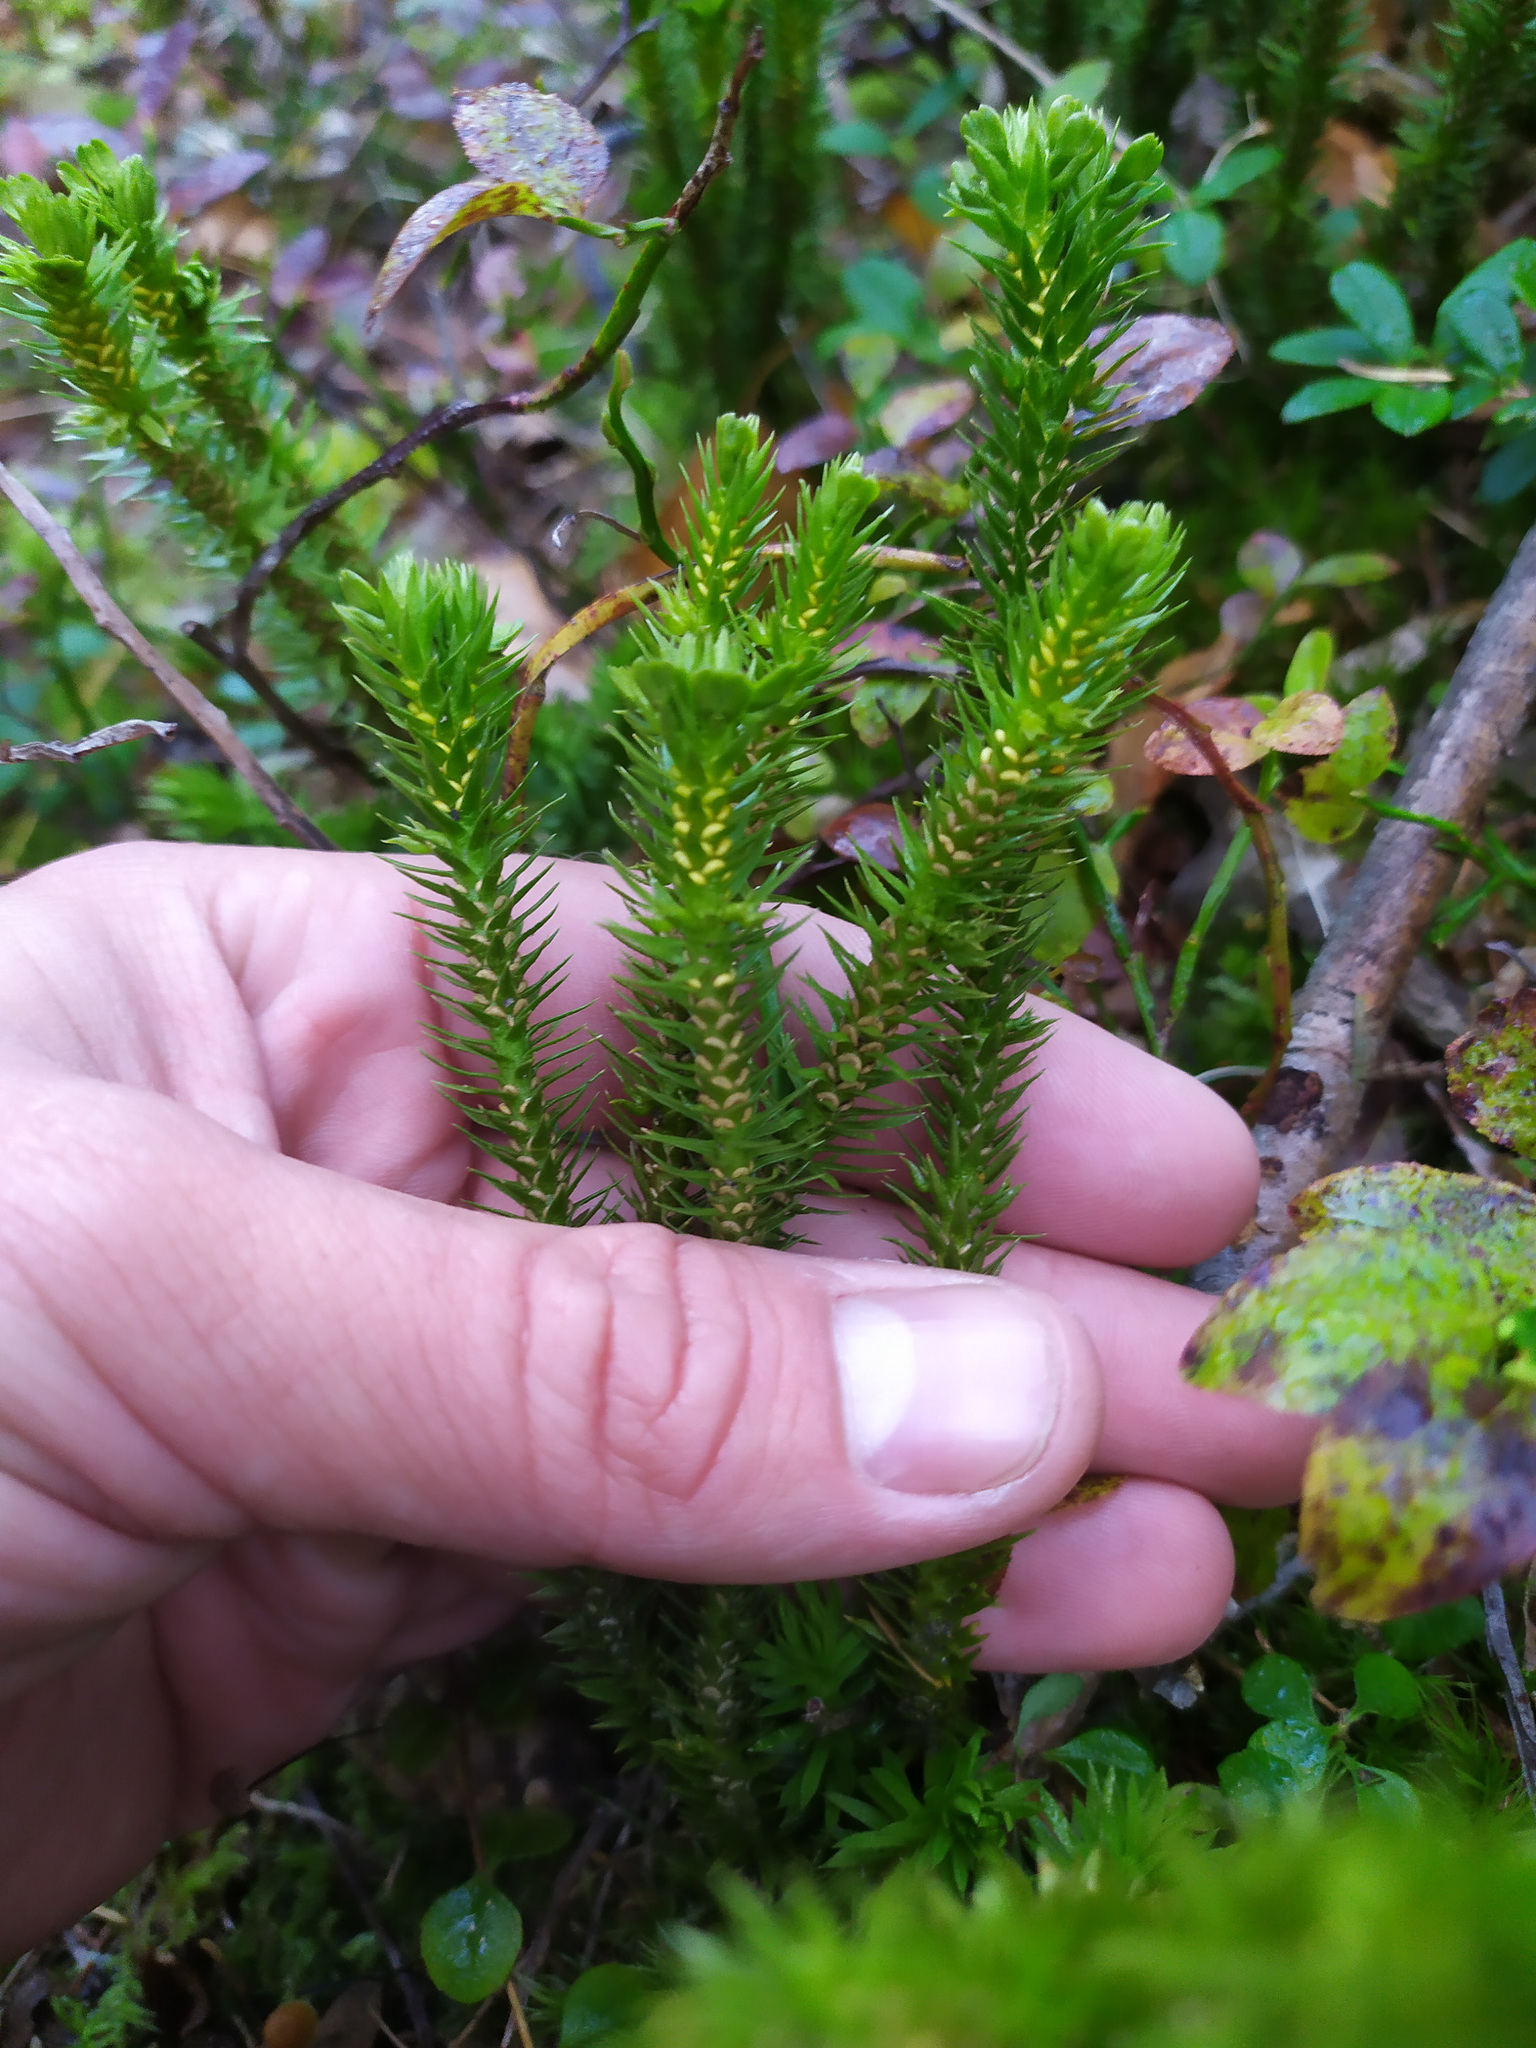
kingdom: Plantae
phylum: Tracheophyta
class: Lycopodiopsida
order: Lycopodiales
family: Lycopodiaceae
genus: Huperzia
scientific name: Huperzia selago
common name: Northern firmoss
